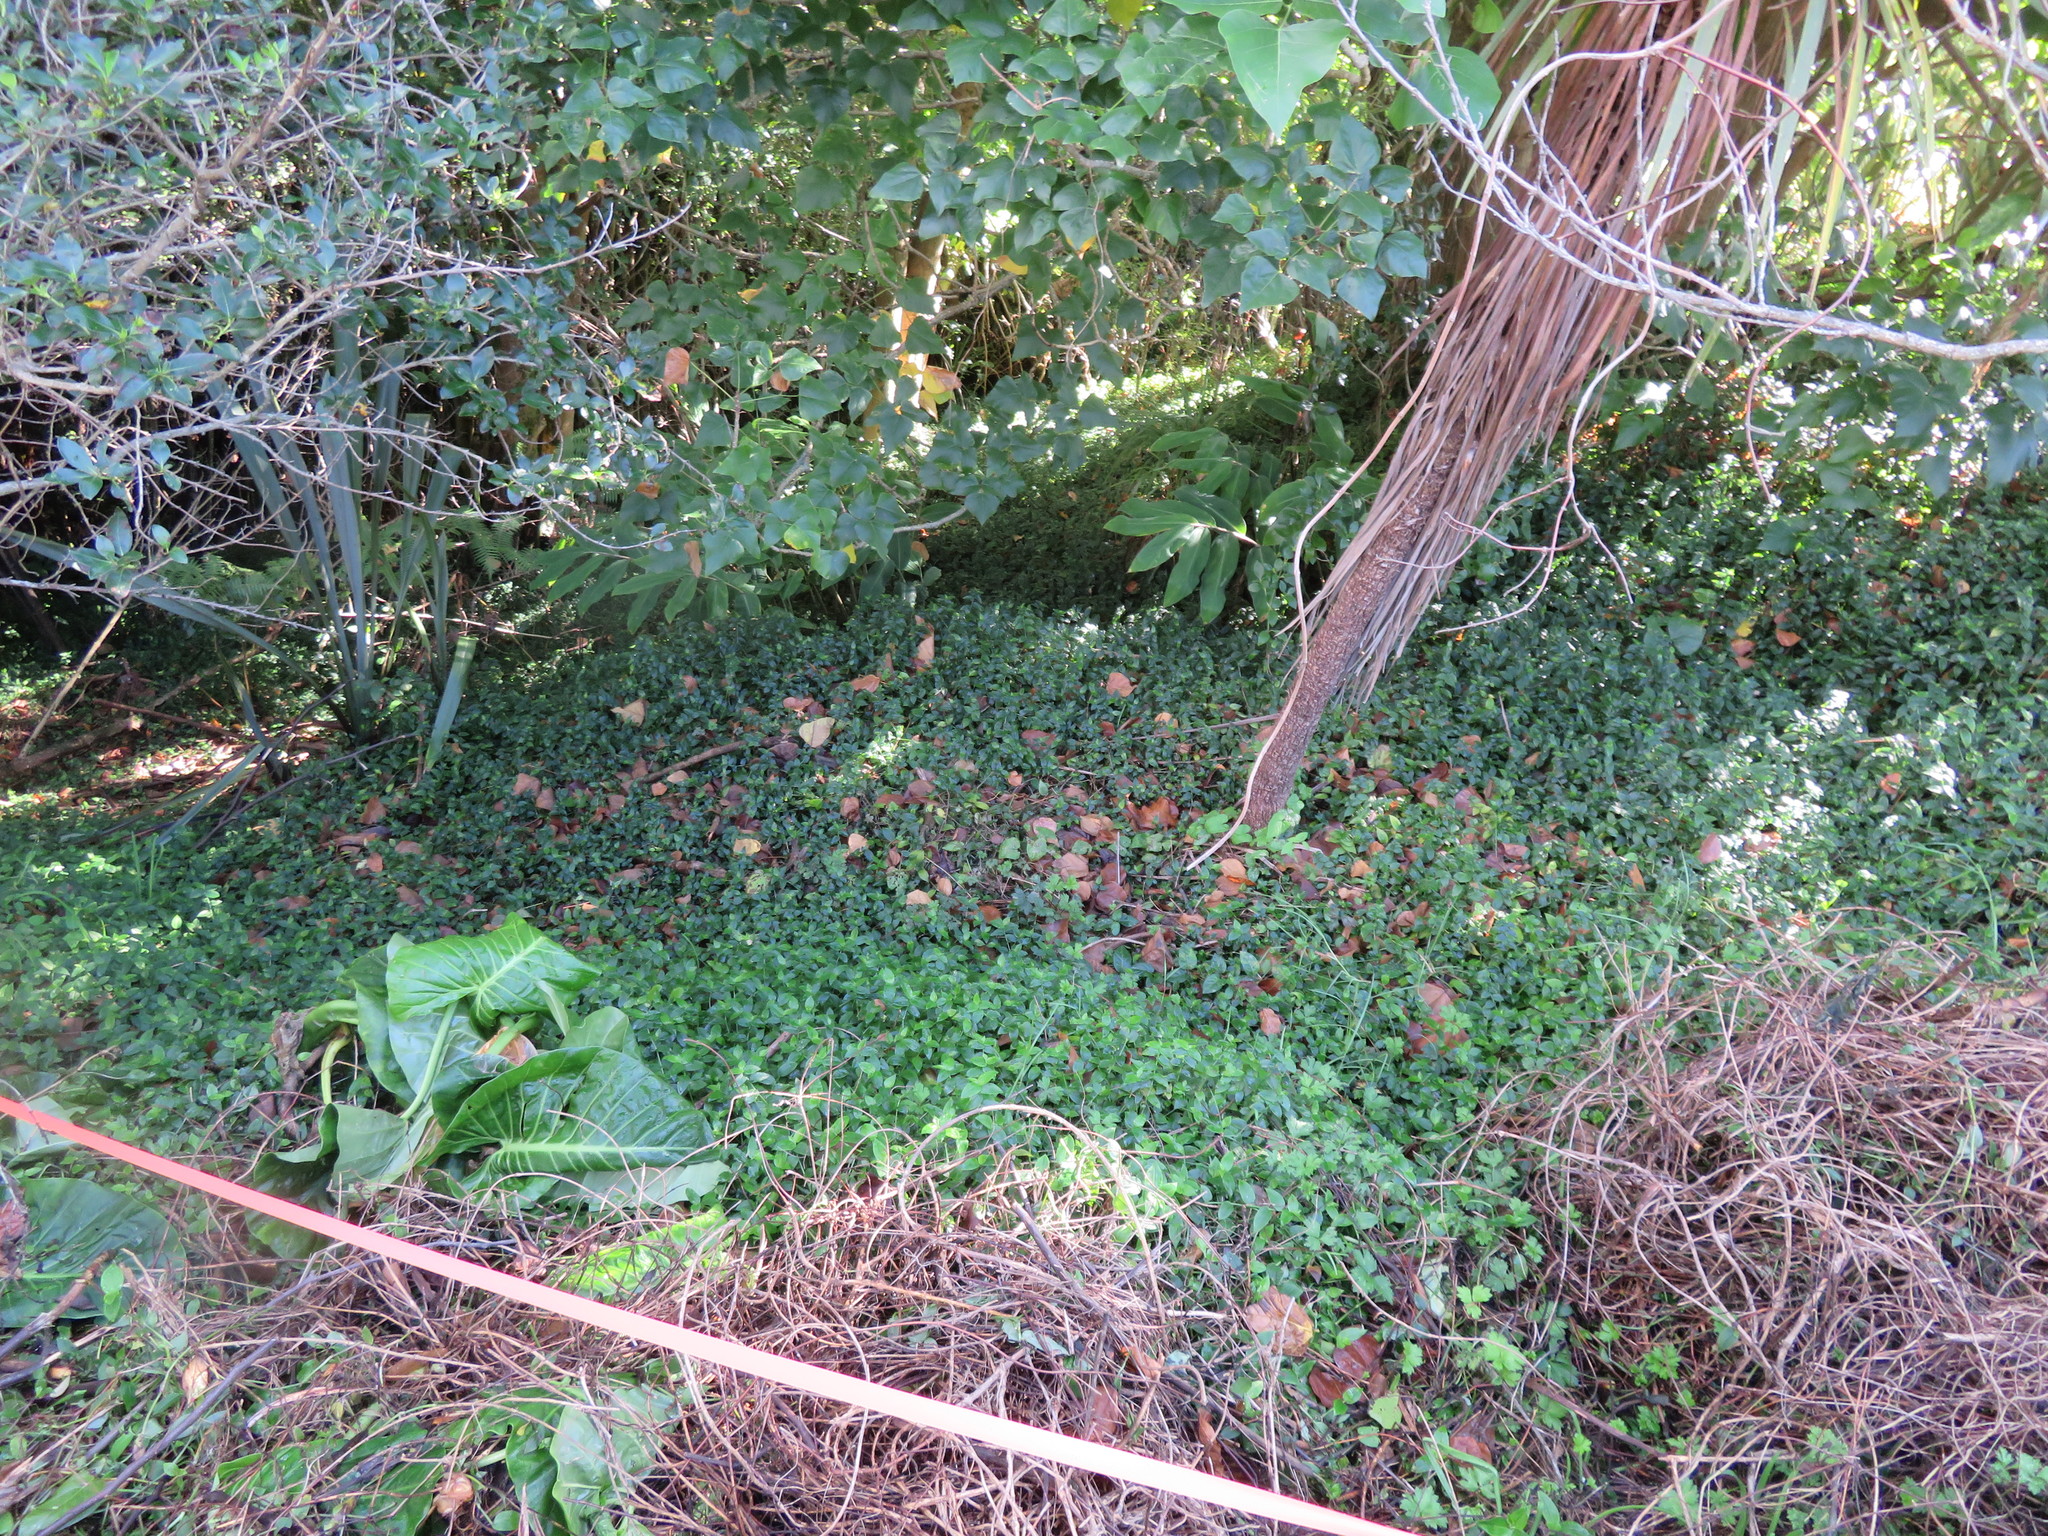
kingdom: Plantae
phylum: Tracheophyta
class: Liliopsida
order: Alismatales
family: Araceae
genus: Alocasia
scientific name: Alocasia brisbanensis
